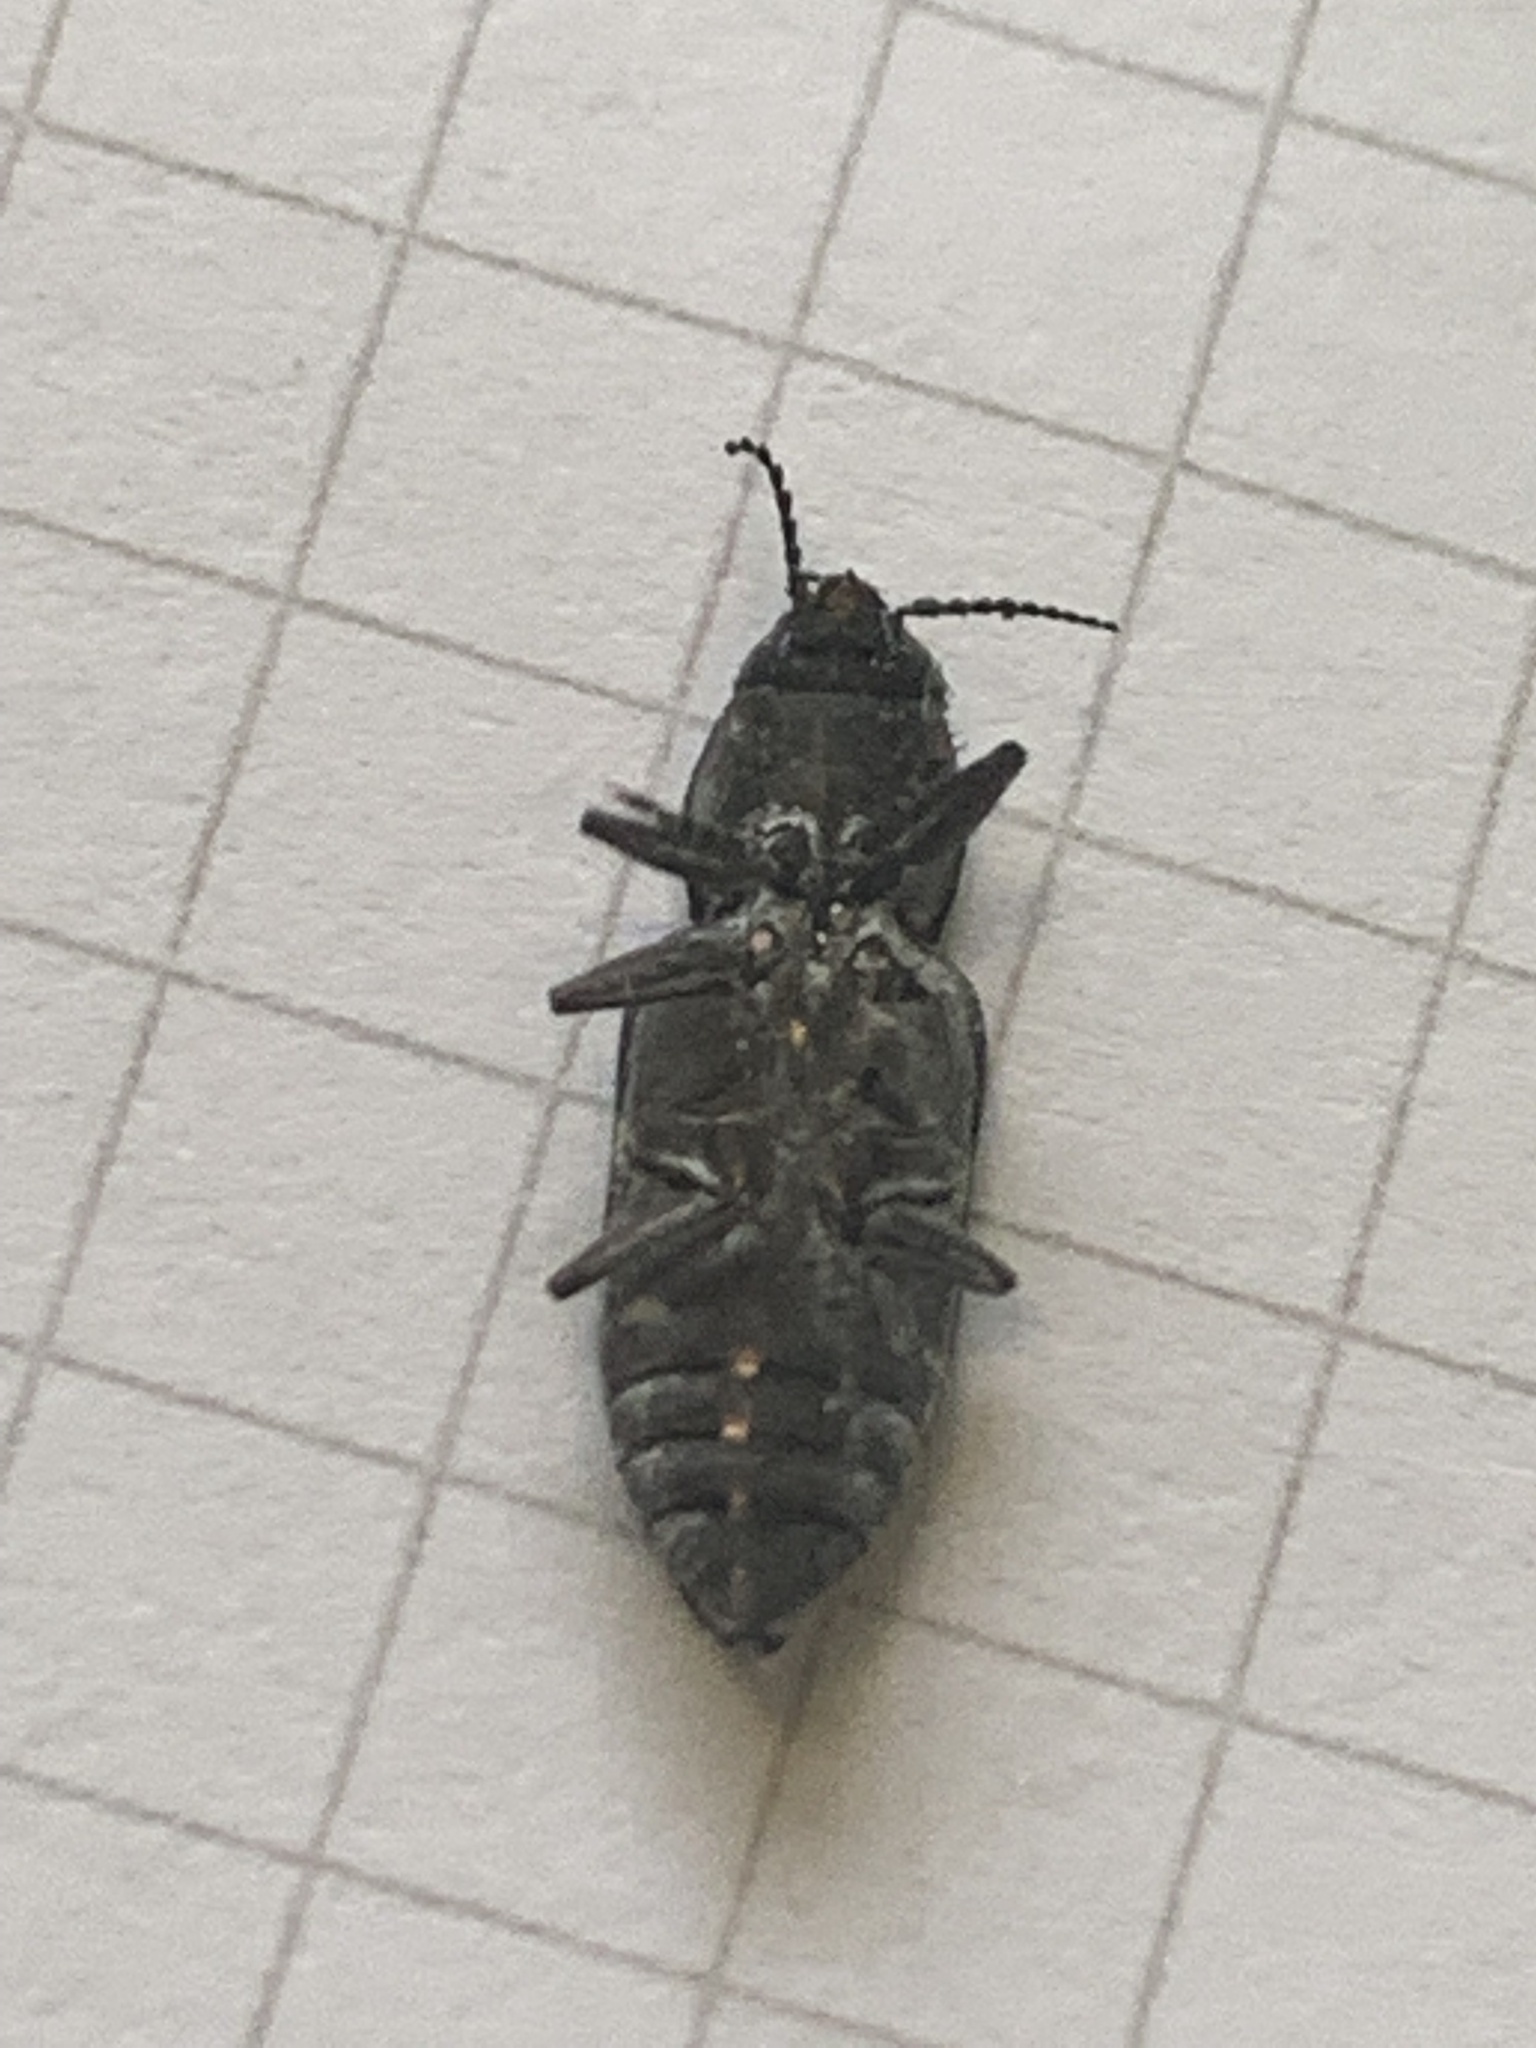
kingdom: Animalia
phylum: Arthropoda
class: Insecta
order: Coleoptera
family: Buprestidae
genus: Melanophila
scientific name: Melanophila consputa
